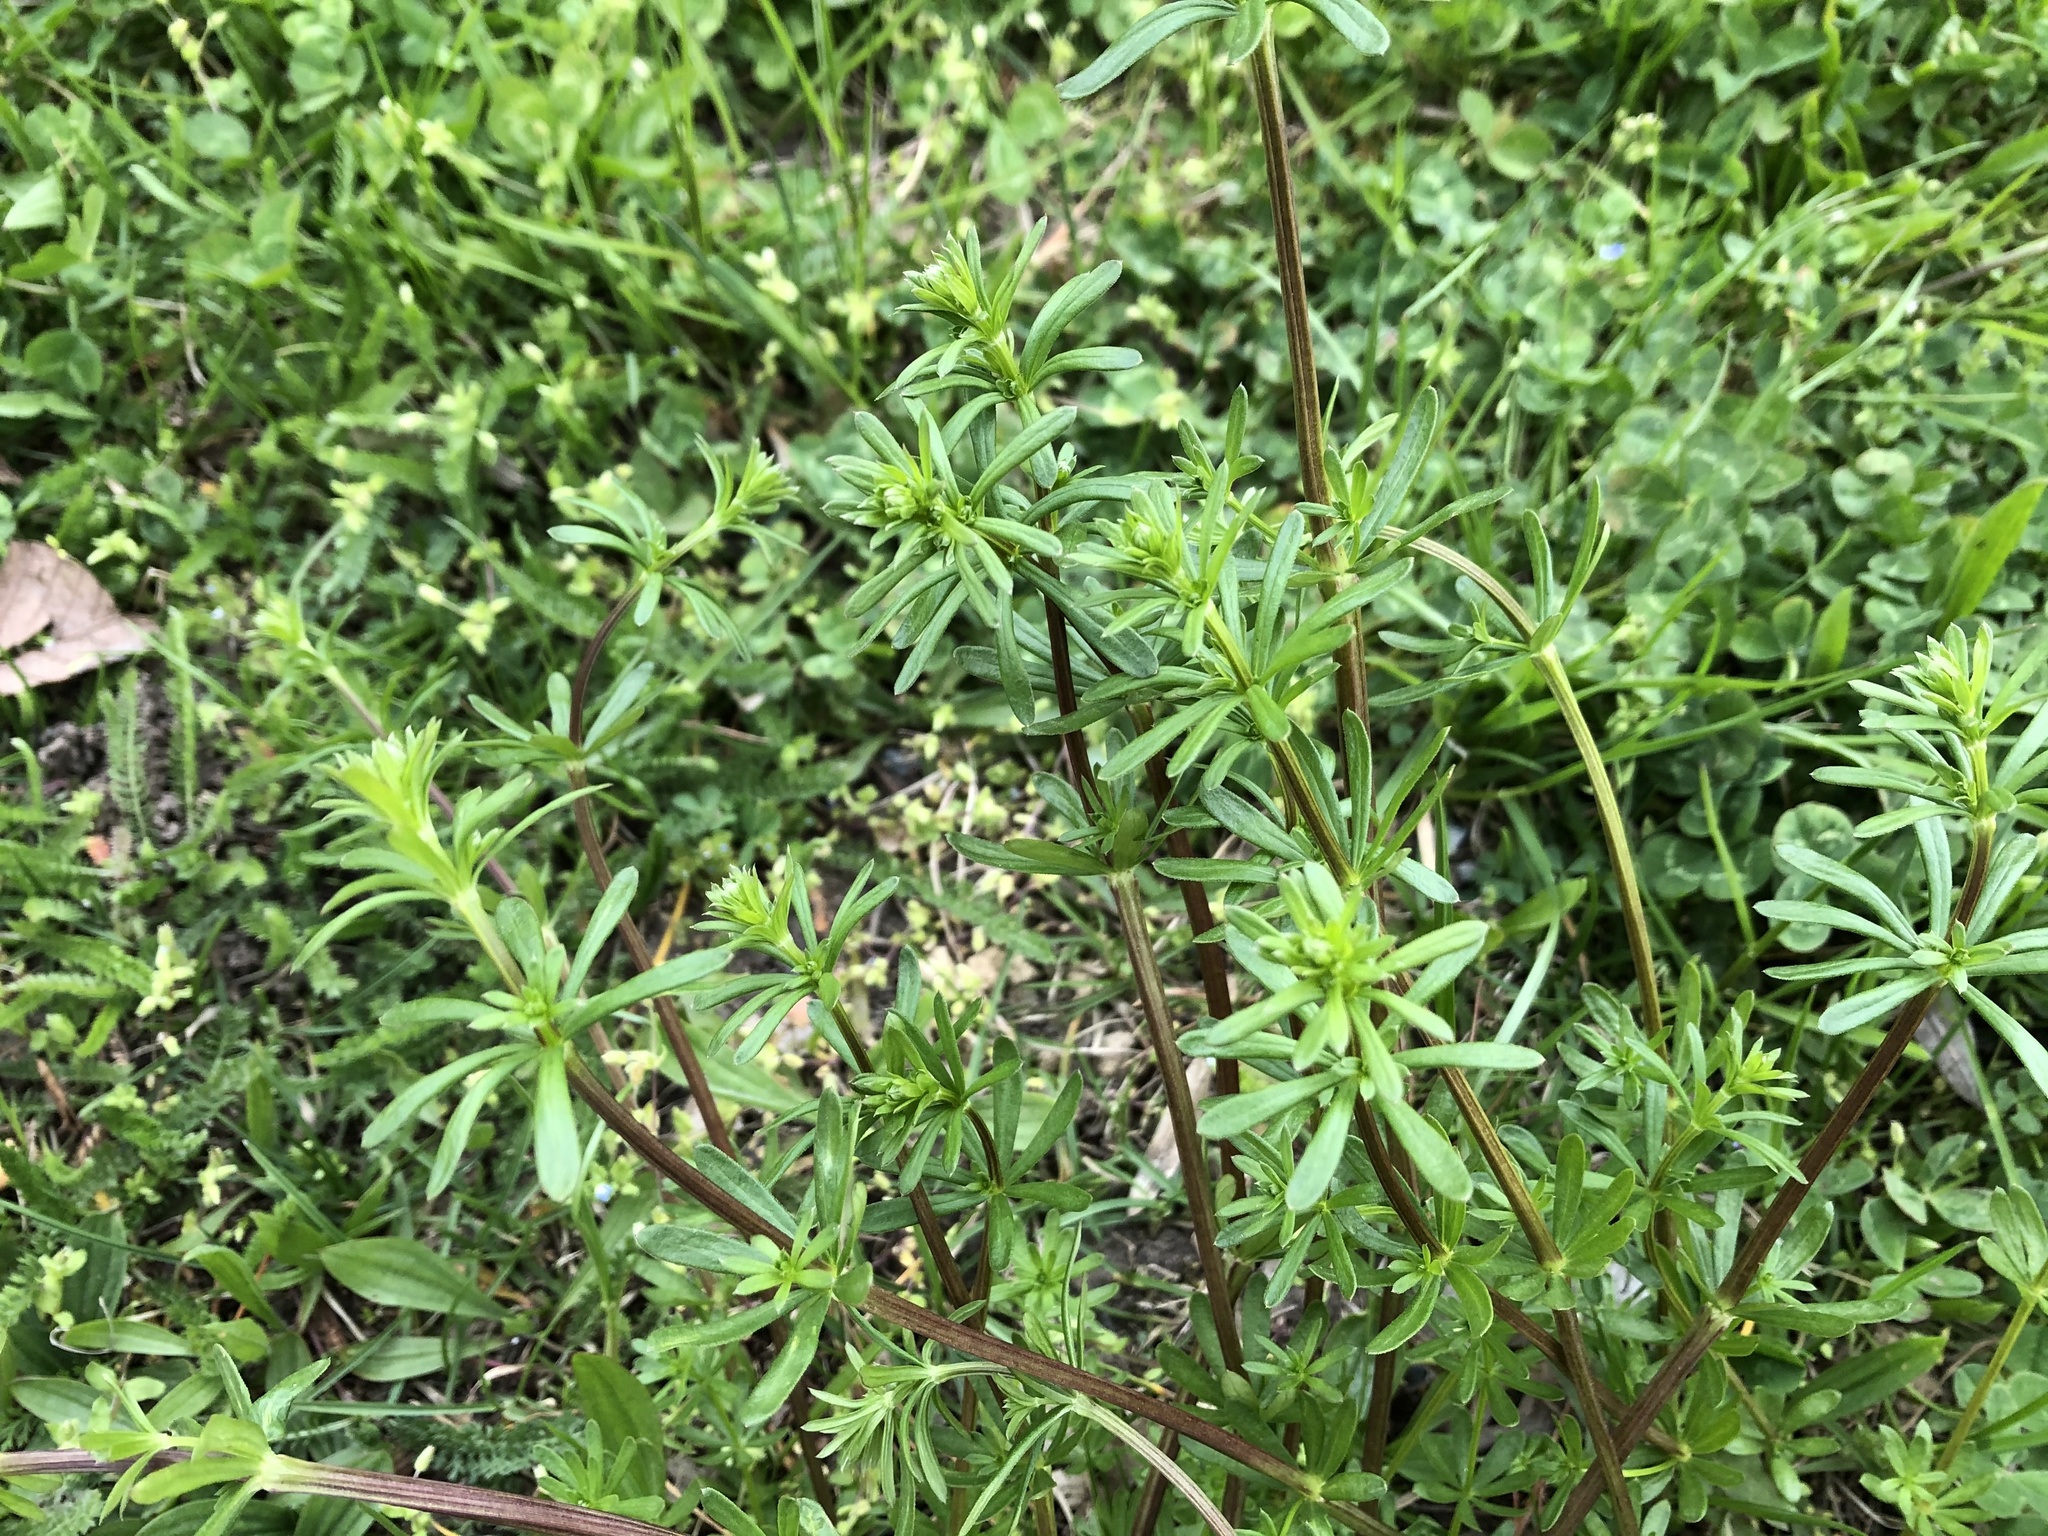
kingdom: Plantae
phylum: Tracheophyta
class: Magnoliopsida
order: Gentianales
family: Rubiaceae
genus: Galium
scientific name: Galium album
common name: White bedstraw
